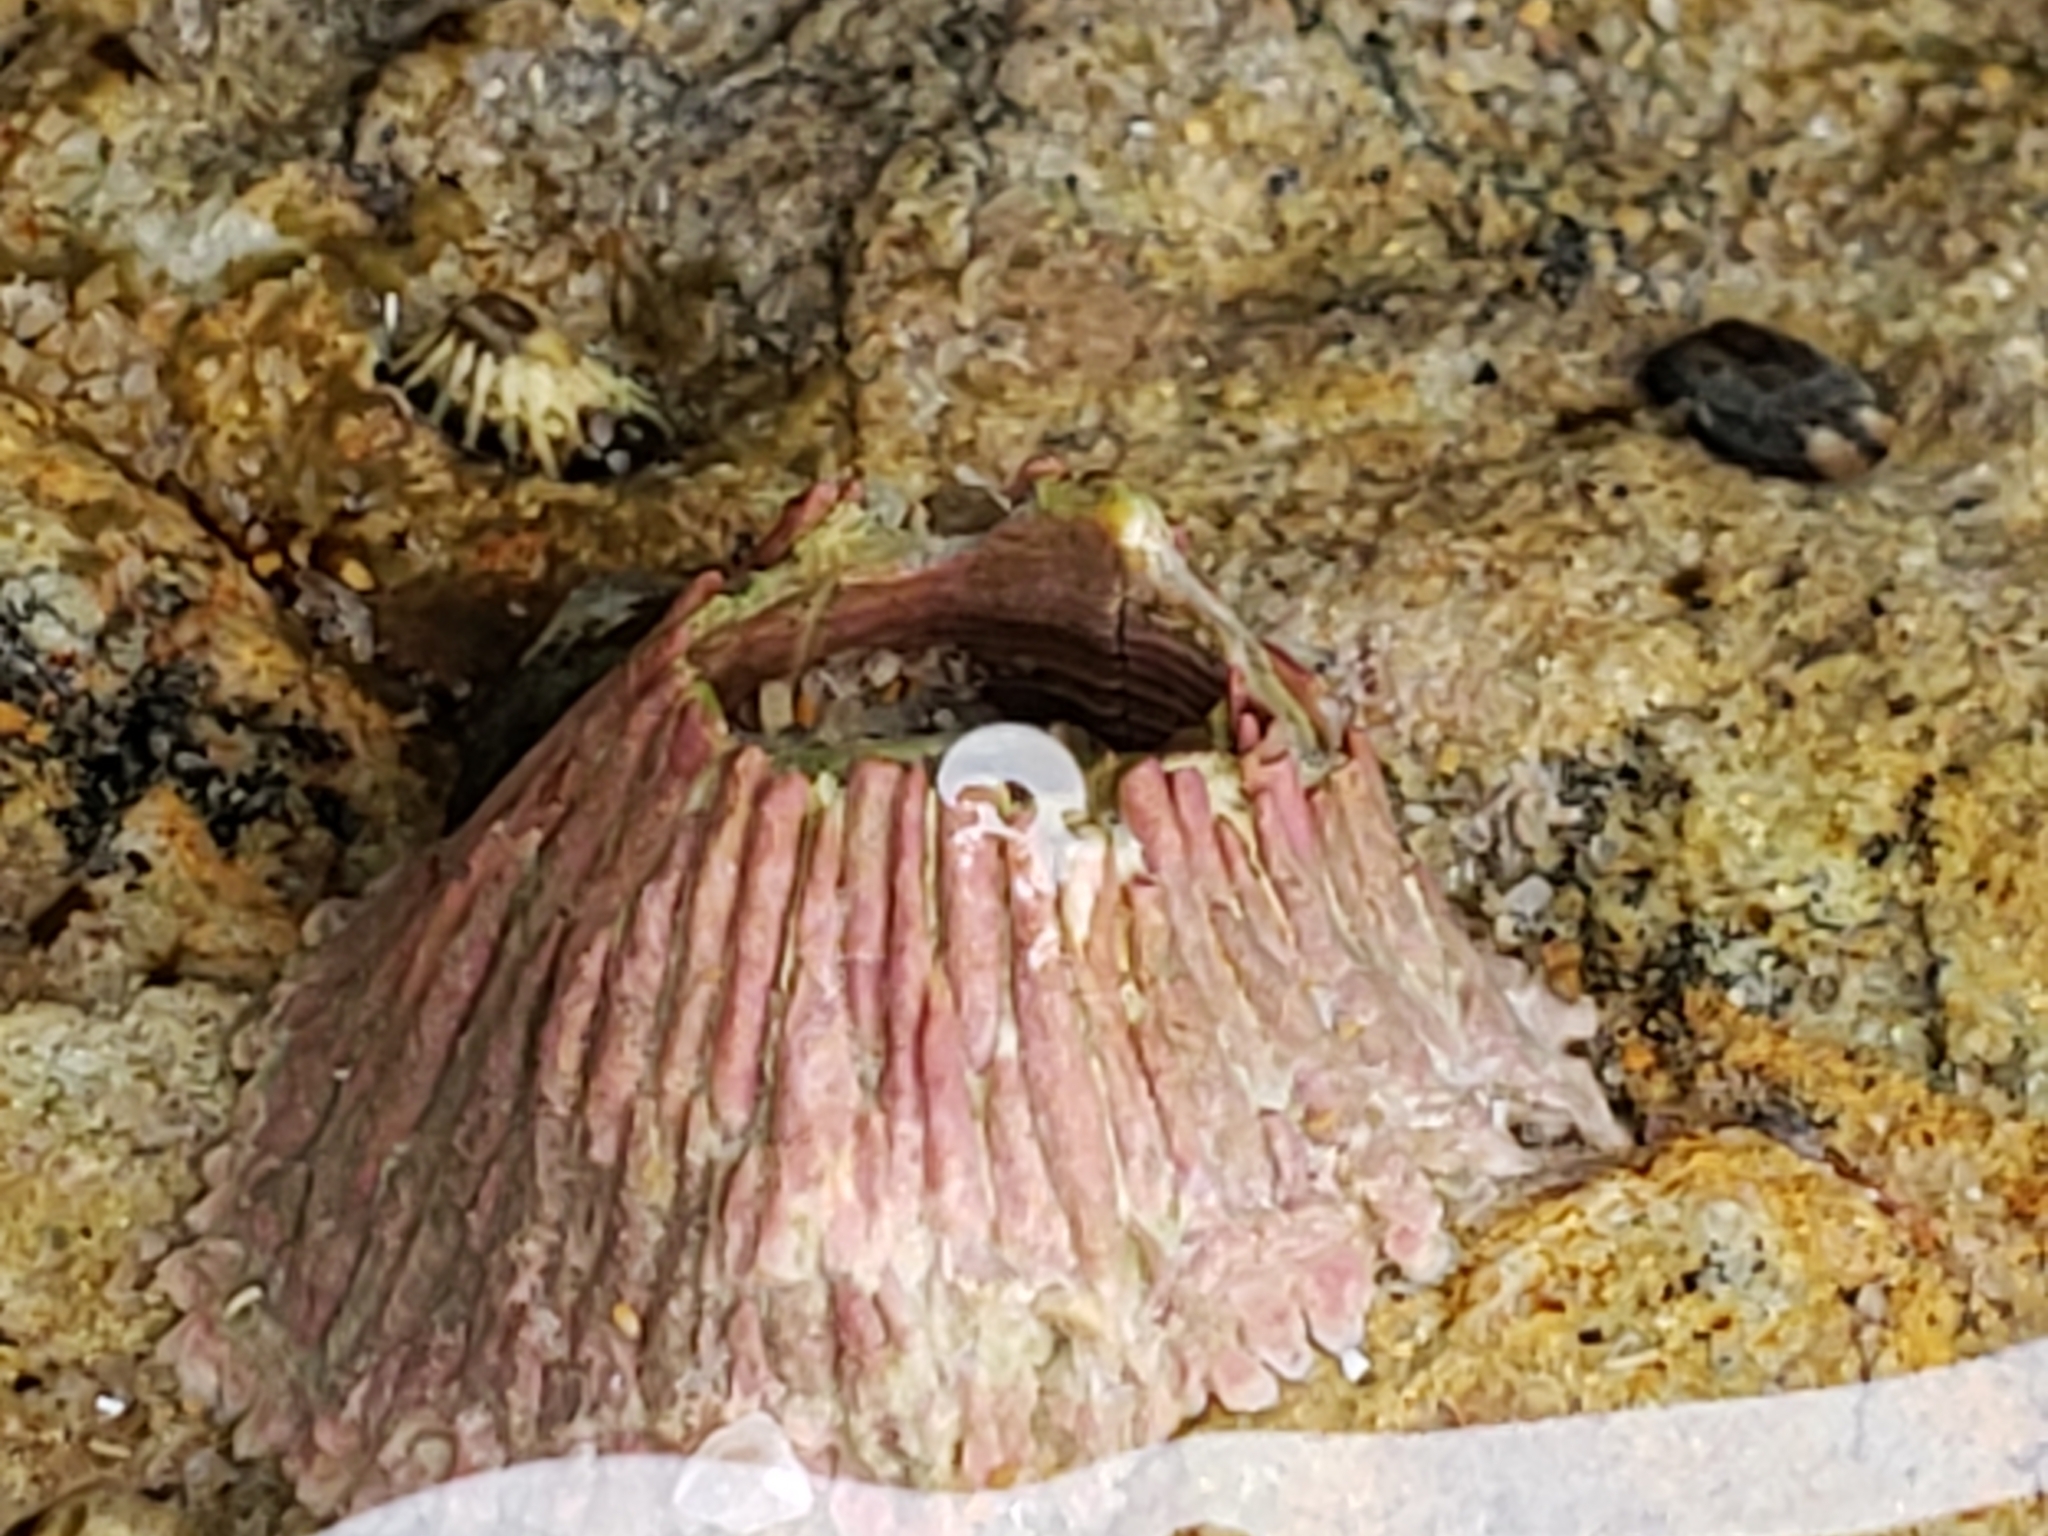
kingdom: Animalia
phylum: Arthropoda
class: Maxillopoda
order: Sessilia
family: Tetraclitidae
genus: Tetraclita
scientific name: Tetraclita rubescens
